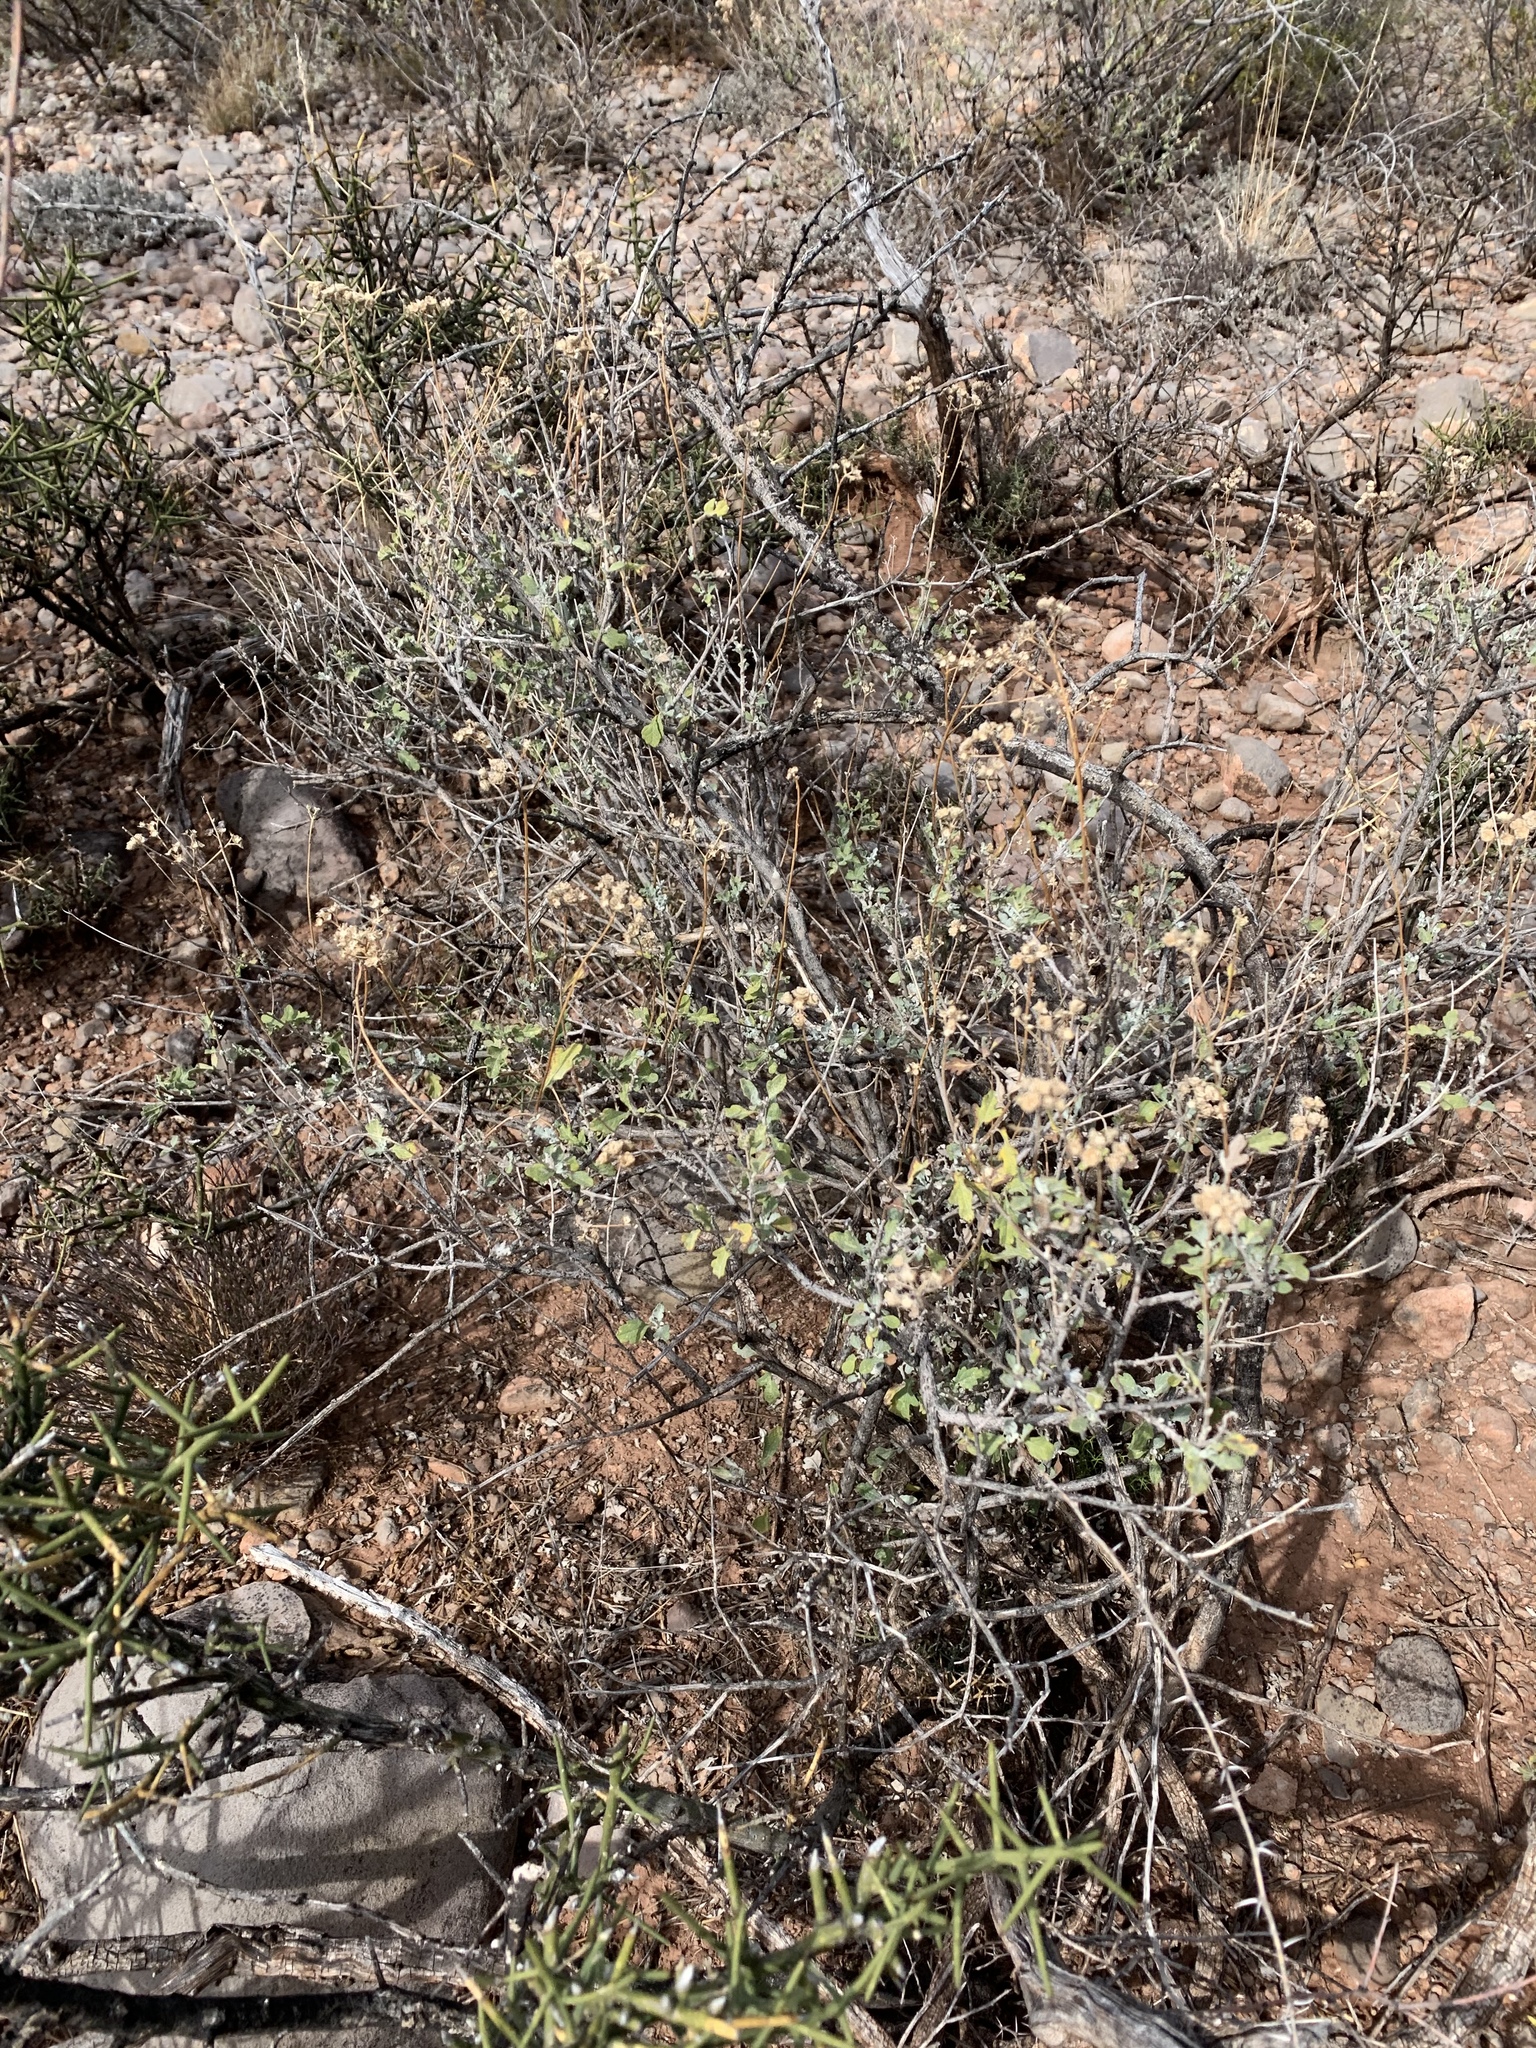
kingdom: Plantae
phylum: Tracheophyta
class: Magnoliopsida
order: Asterales
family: Asteraceae
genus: Parthenium
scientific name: Parthenium incanum
